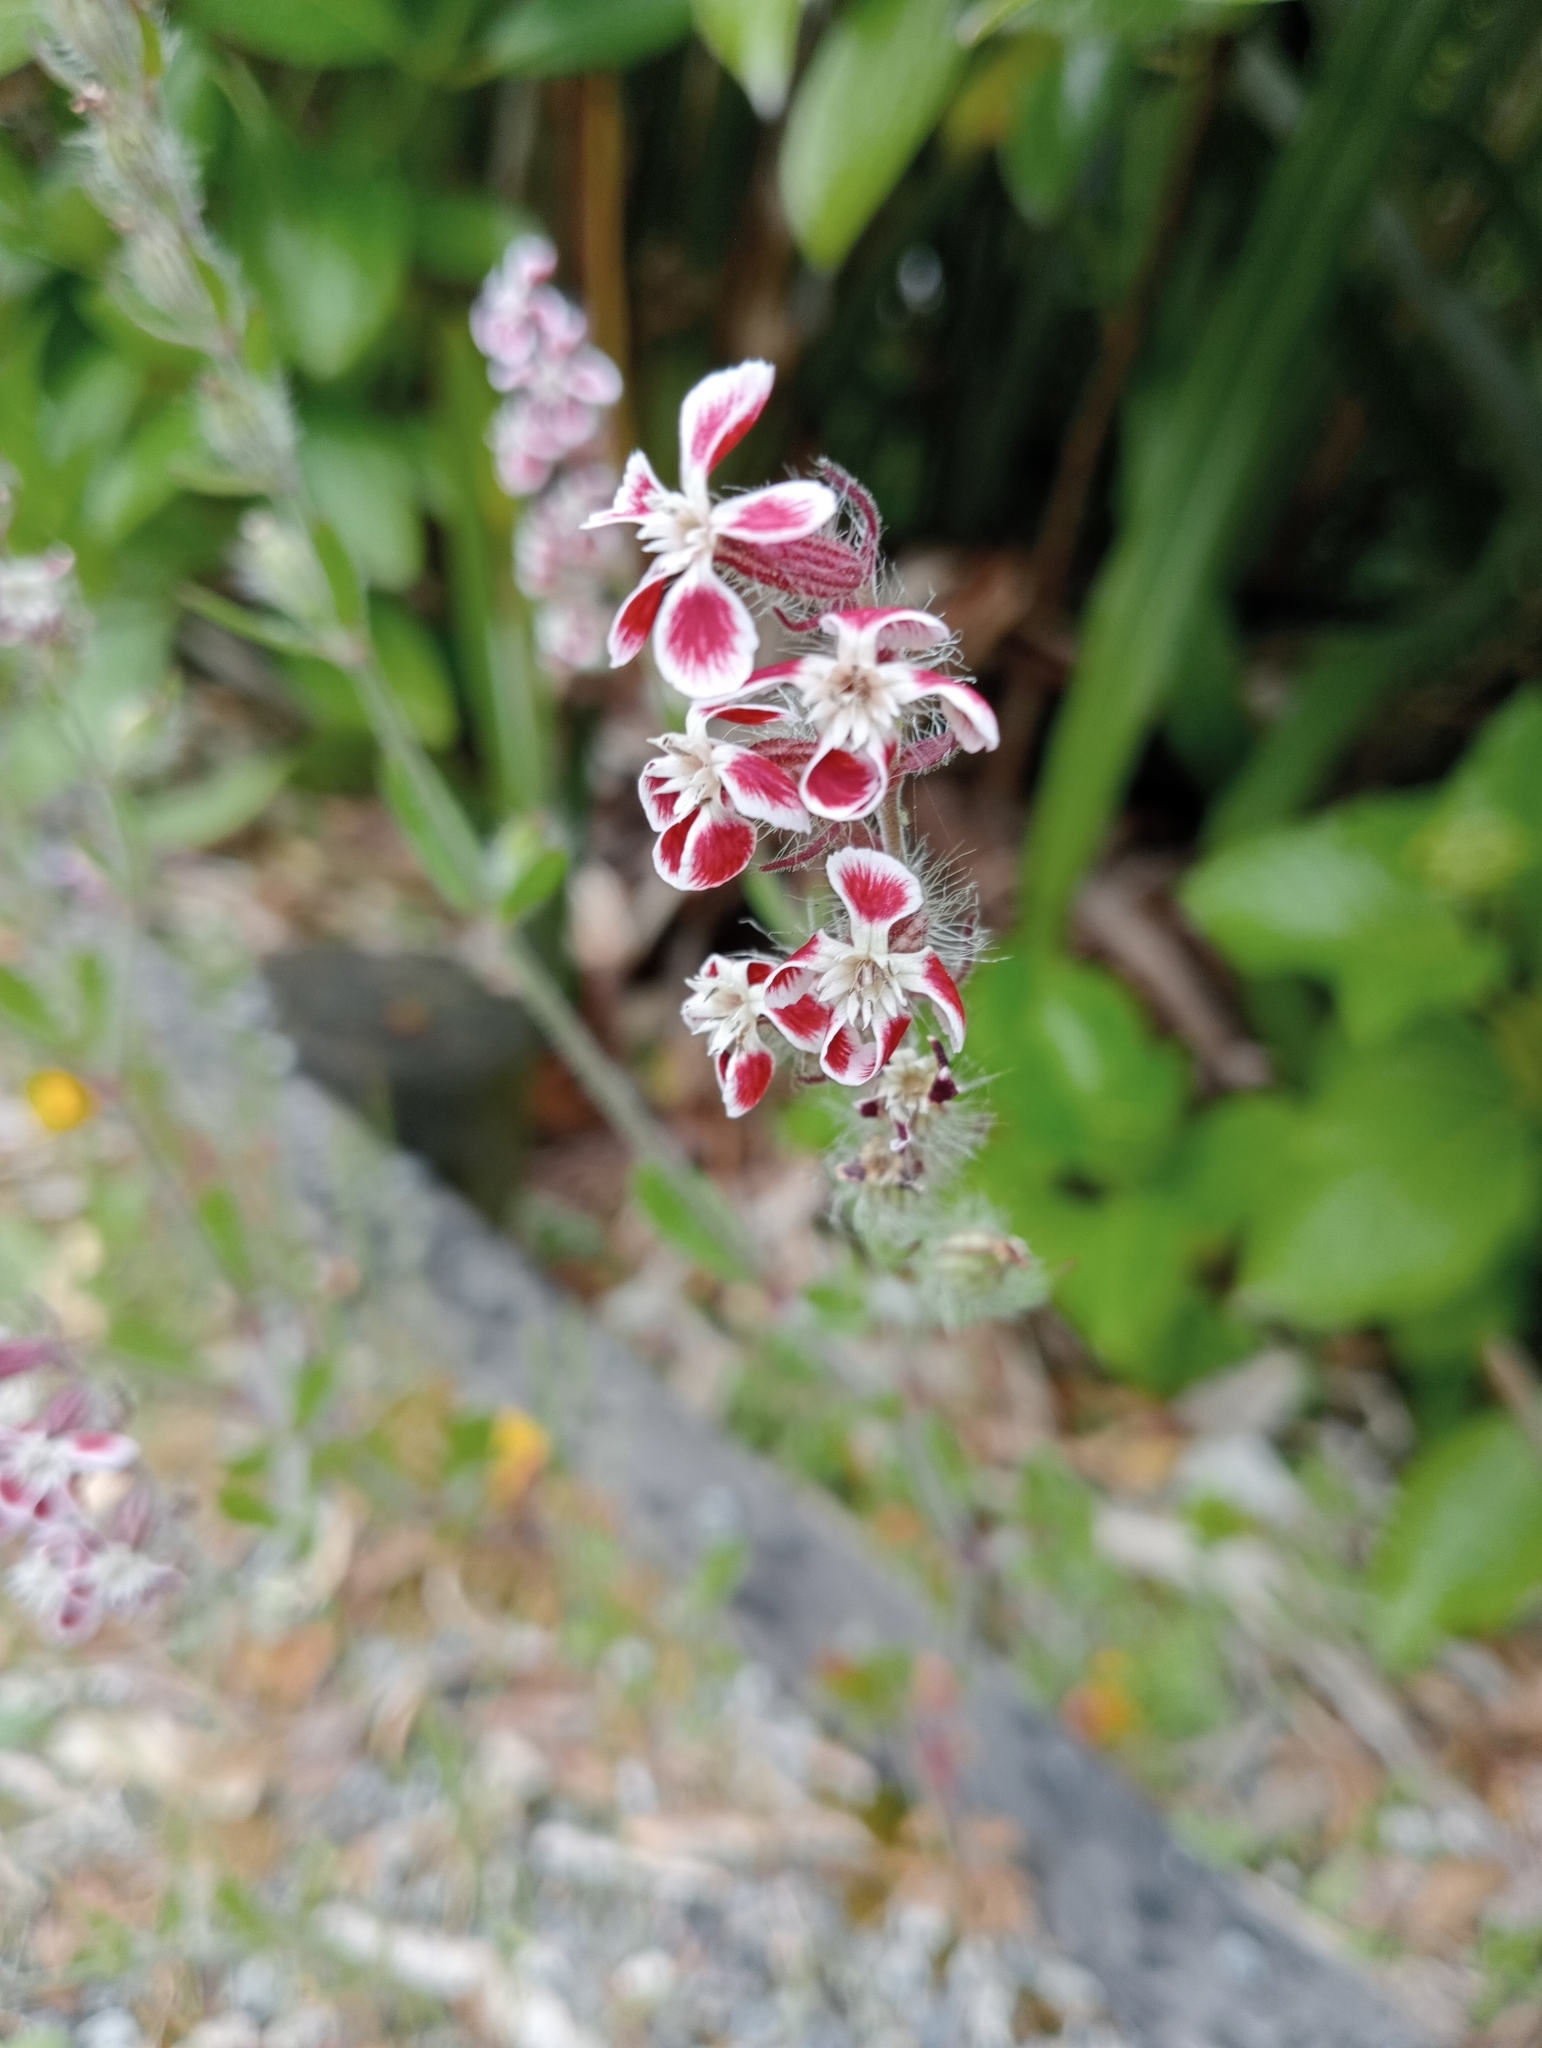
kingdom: Plantae
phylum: Tracheophyta
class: Magnoliopsida
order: Caryophyllales
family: Caryophyllaceae
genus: Silene
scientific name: Silene gallica
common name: Small-flowered catchfly
